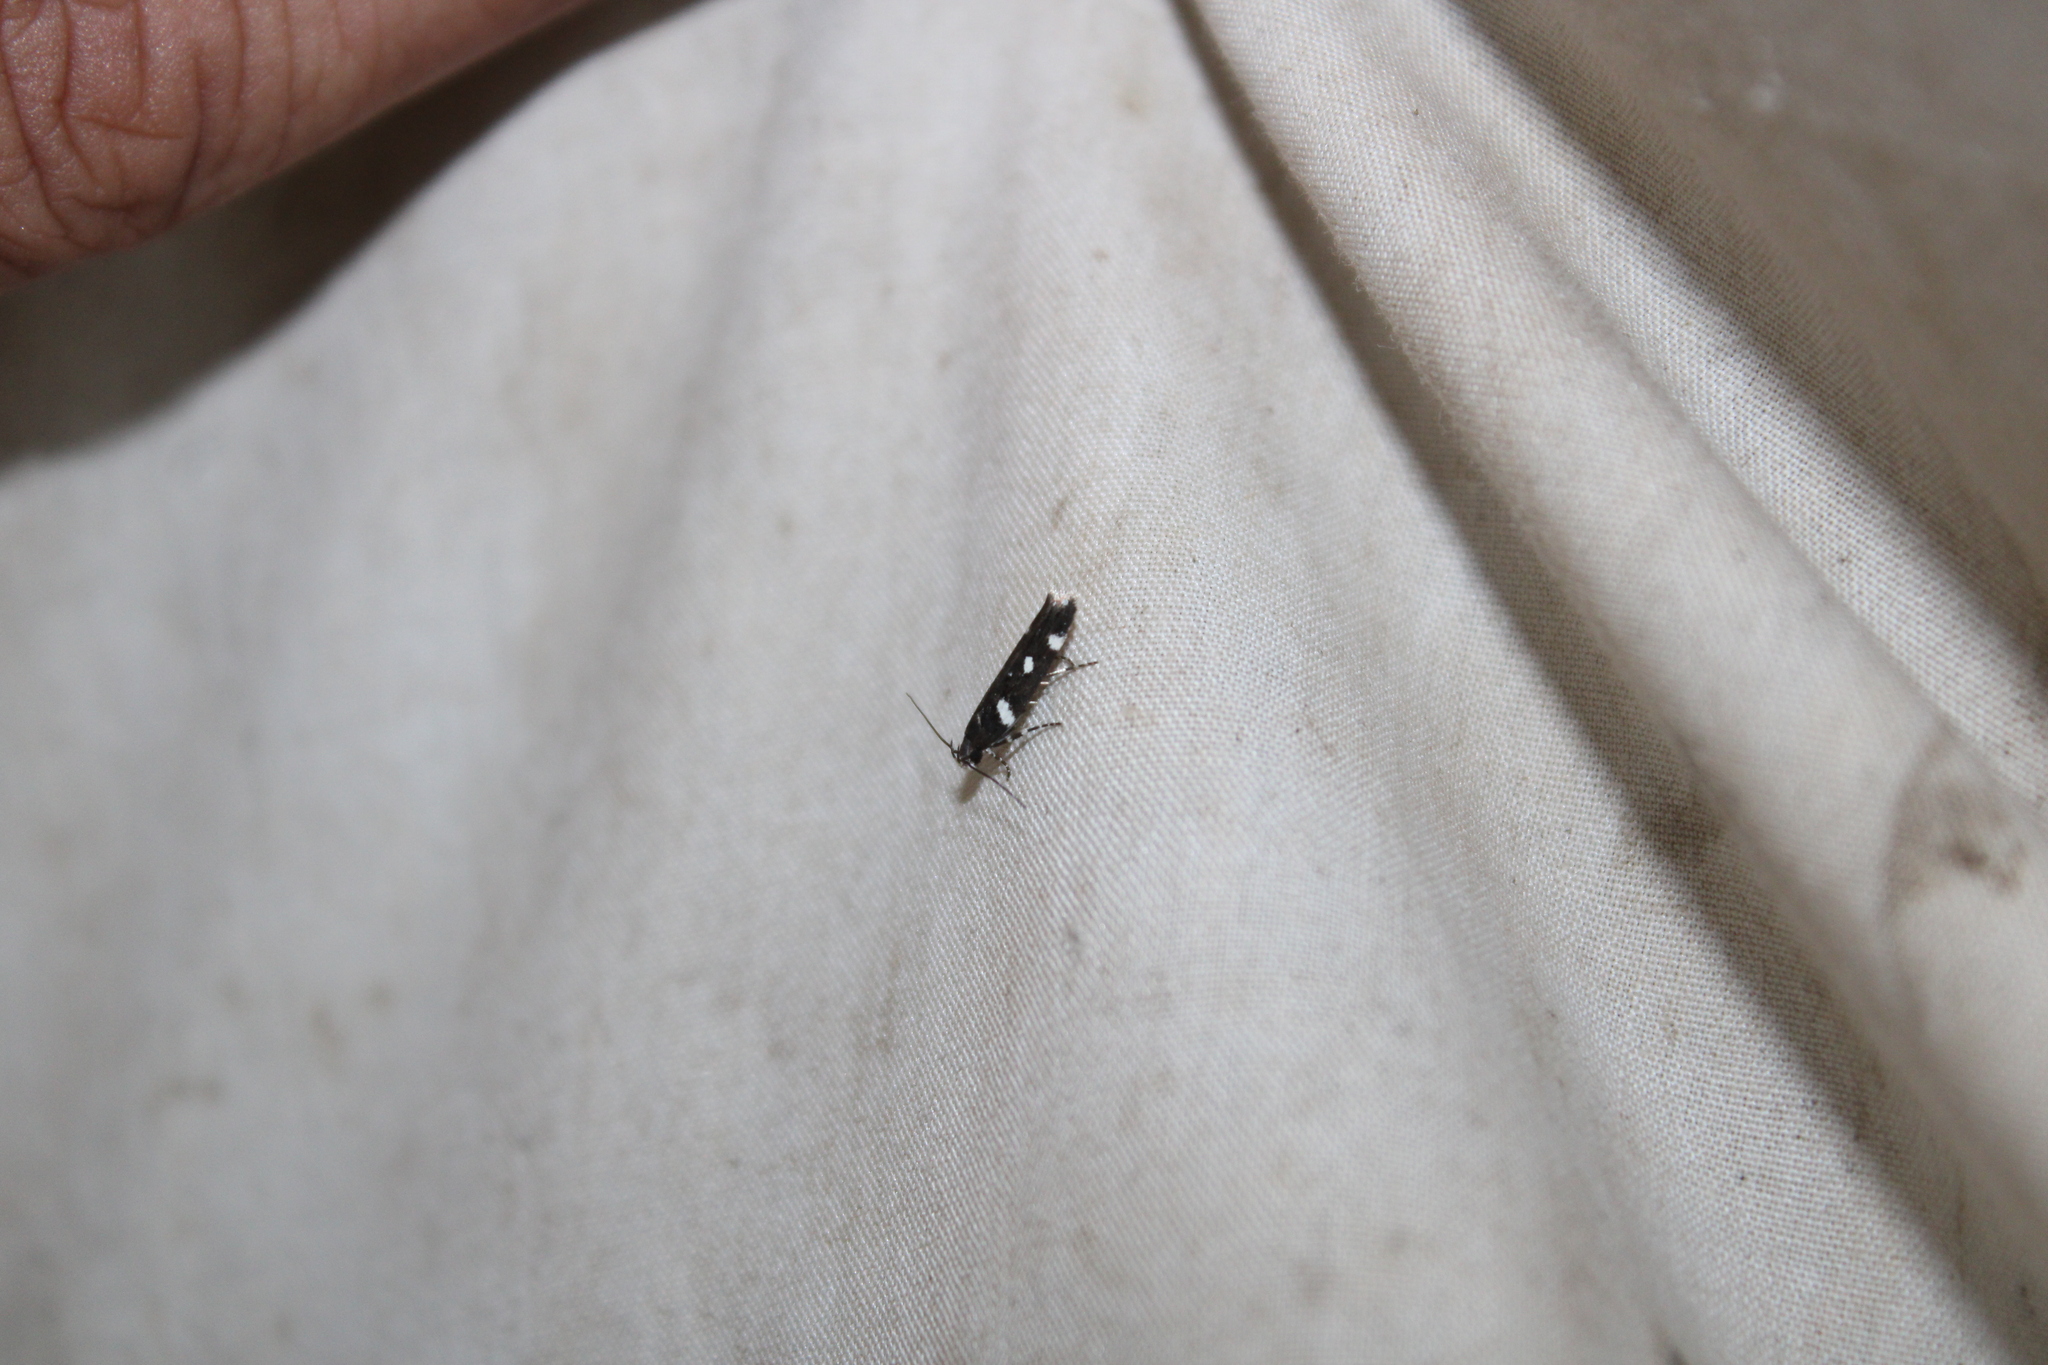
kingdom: Animalia
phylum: Arthropoda
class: Insecta
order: Lepidoptera
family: Gelechiidae
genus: Aroga
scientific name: Aroga compositella
